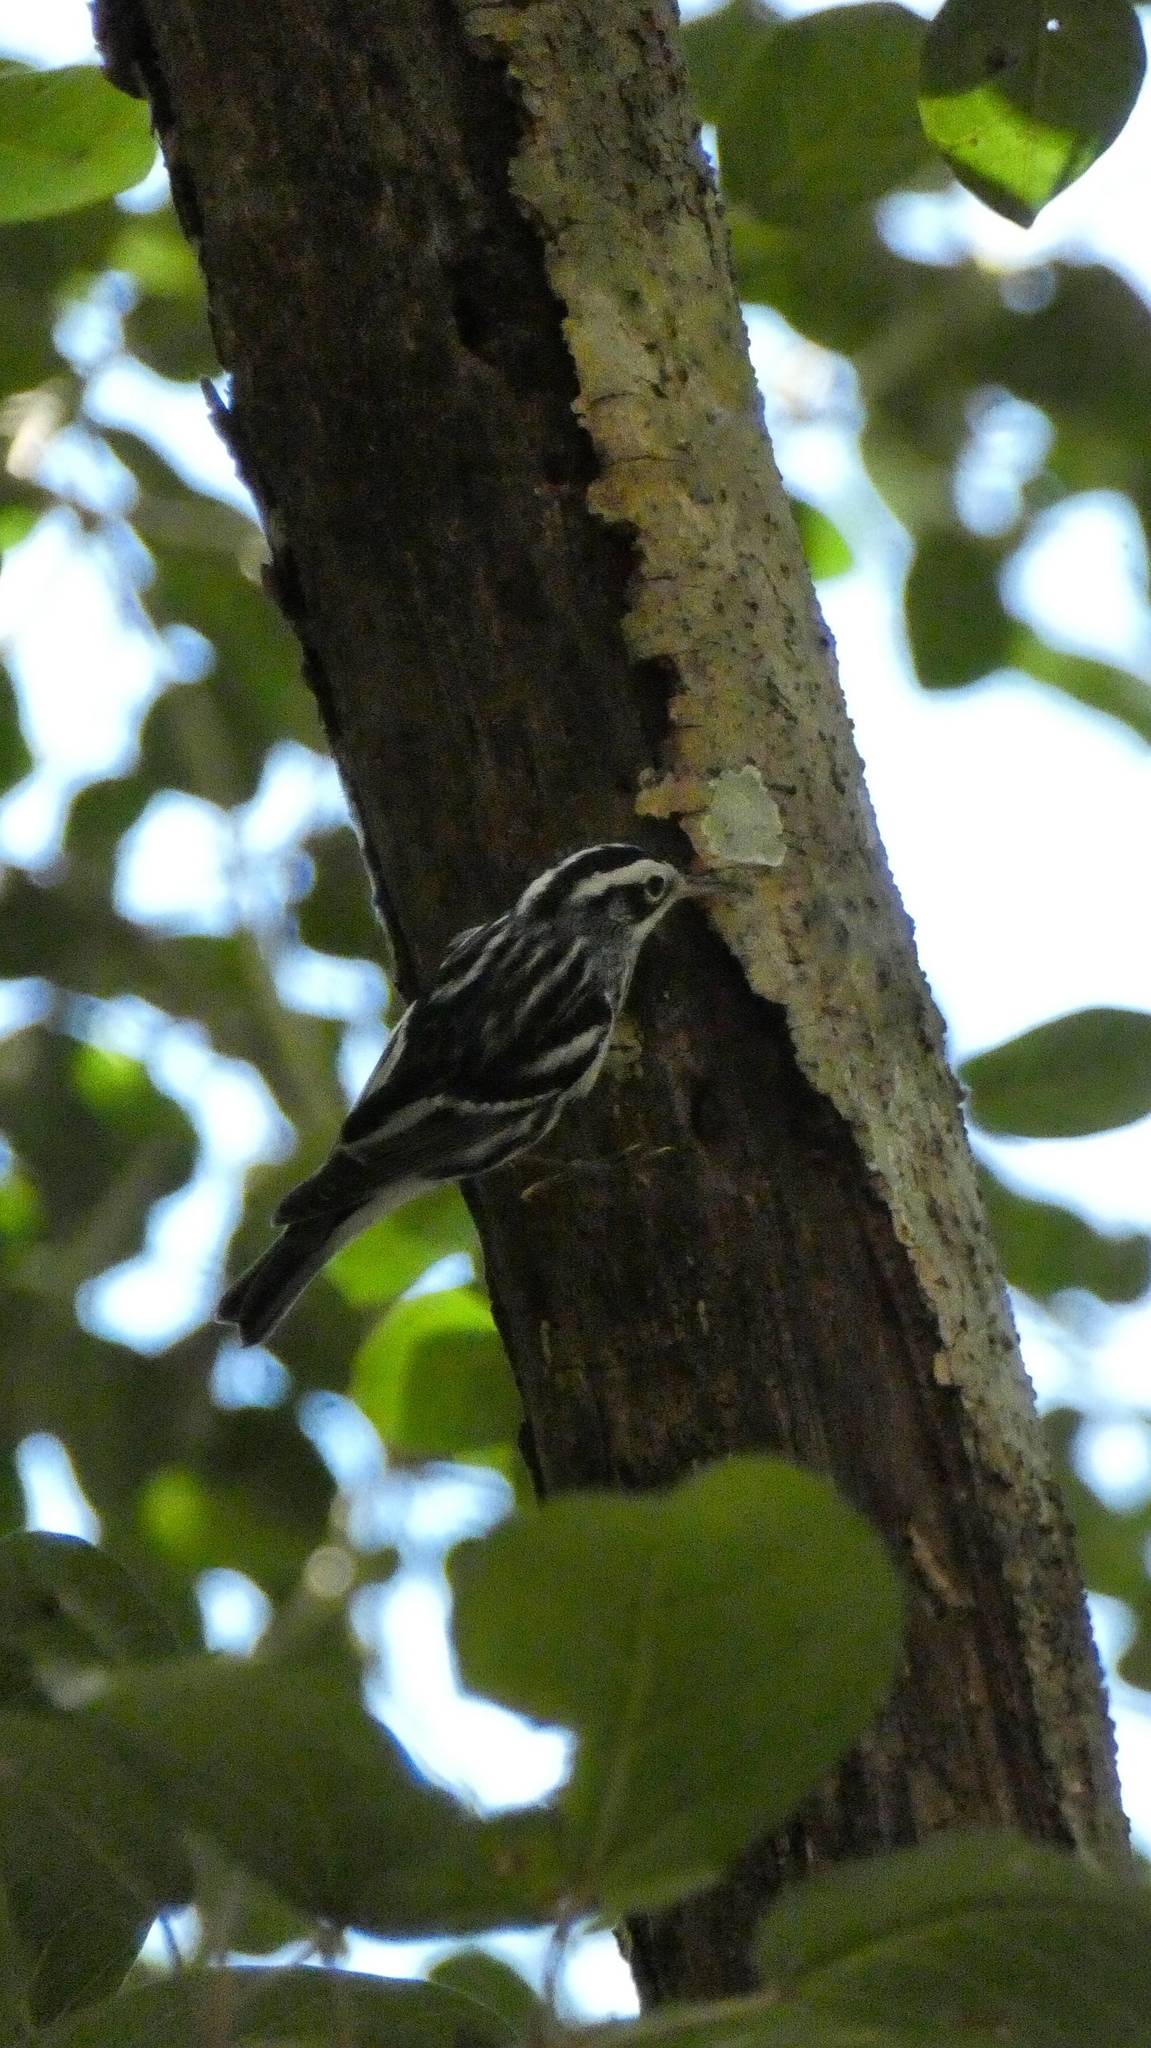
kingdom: Animalia
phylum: Chordata
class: Aves
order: Passeriformes
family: Parulidae
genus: Mniotilta
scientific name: Mniotilta varia
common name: Black-and-white warbler
